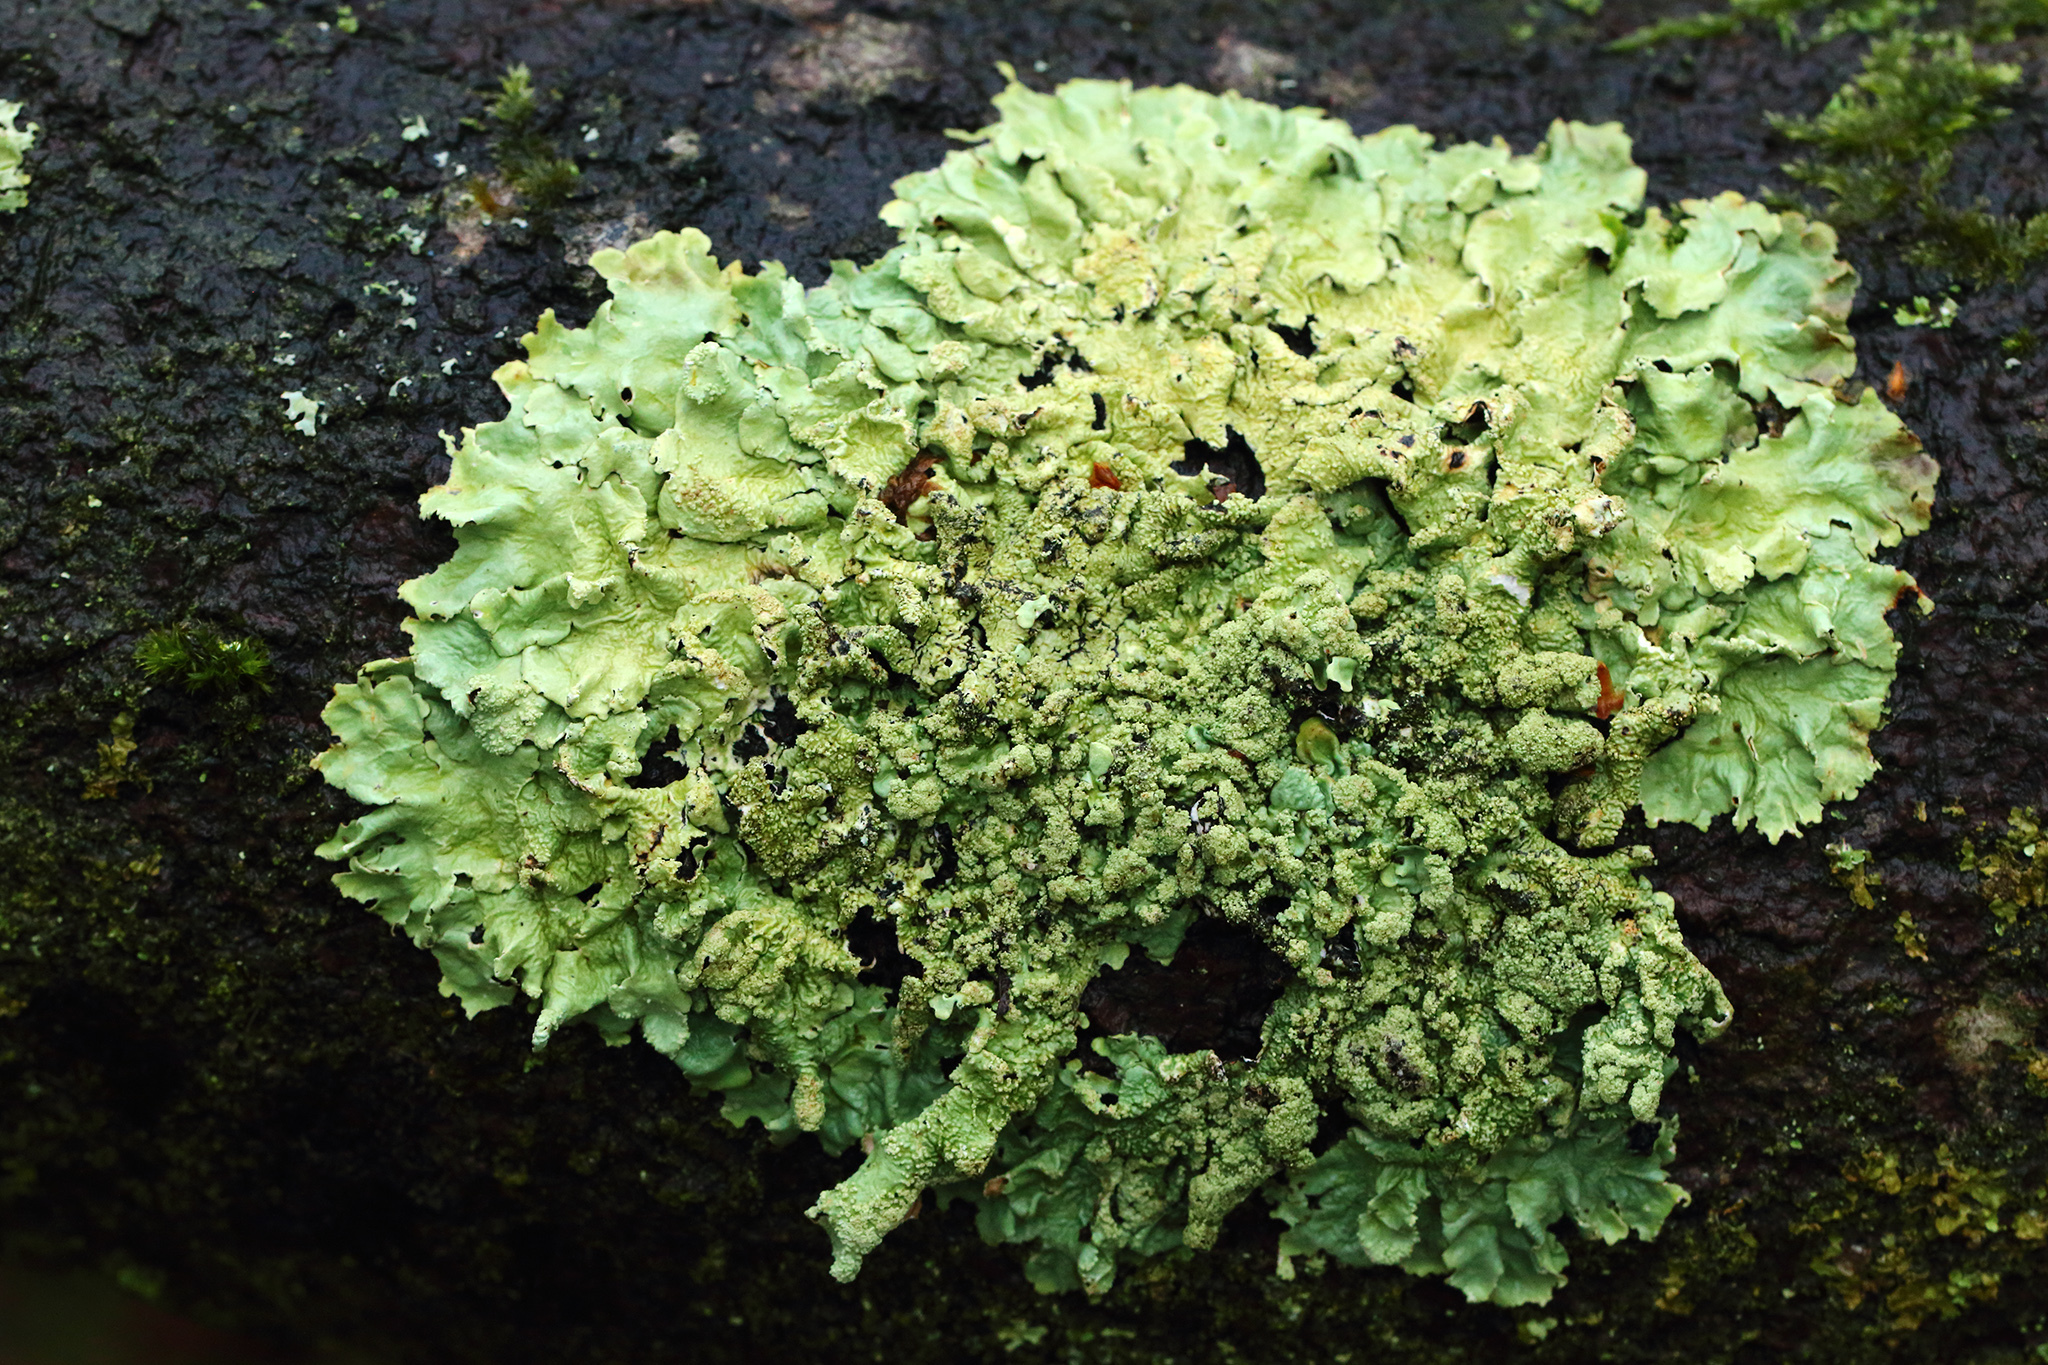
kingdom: Fungi
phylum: Ascomycota
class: Lecanoromycetes
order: Lecanorales
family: Parmeliaceae
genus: Flavoparmelia
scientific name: Flavoparmelia caperata
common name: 40-mile per hour lichen
